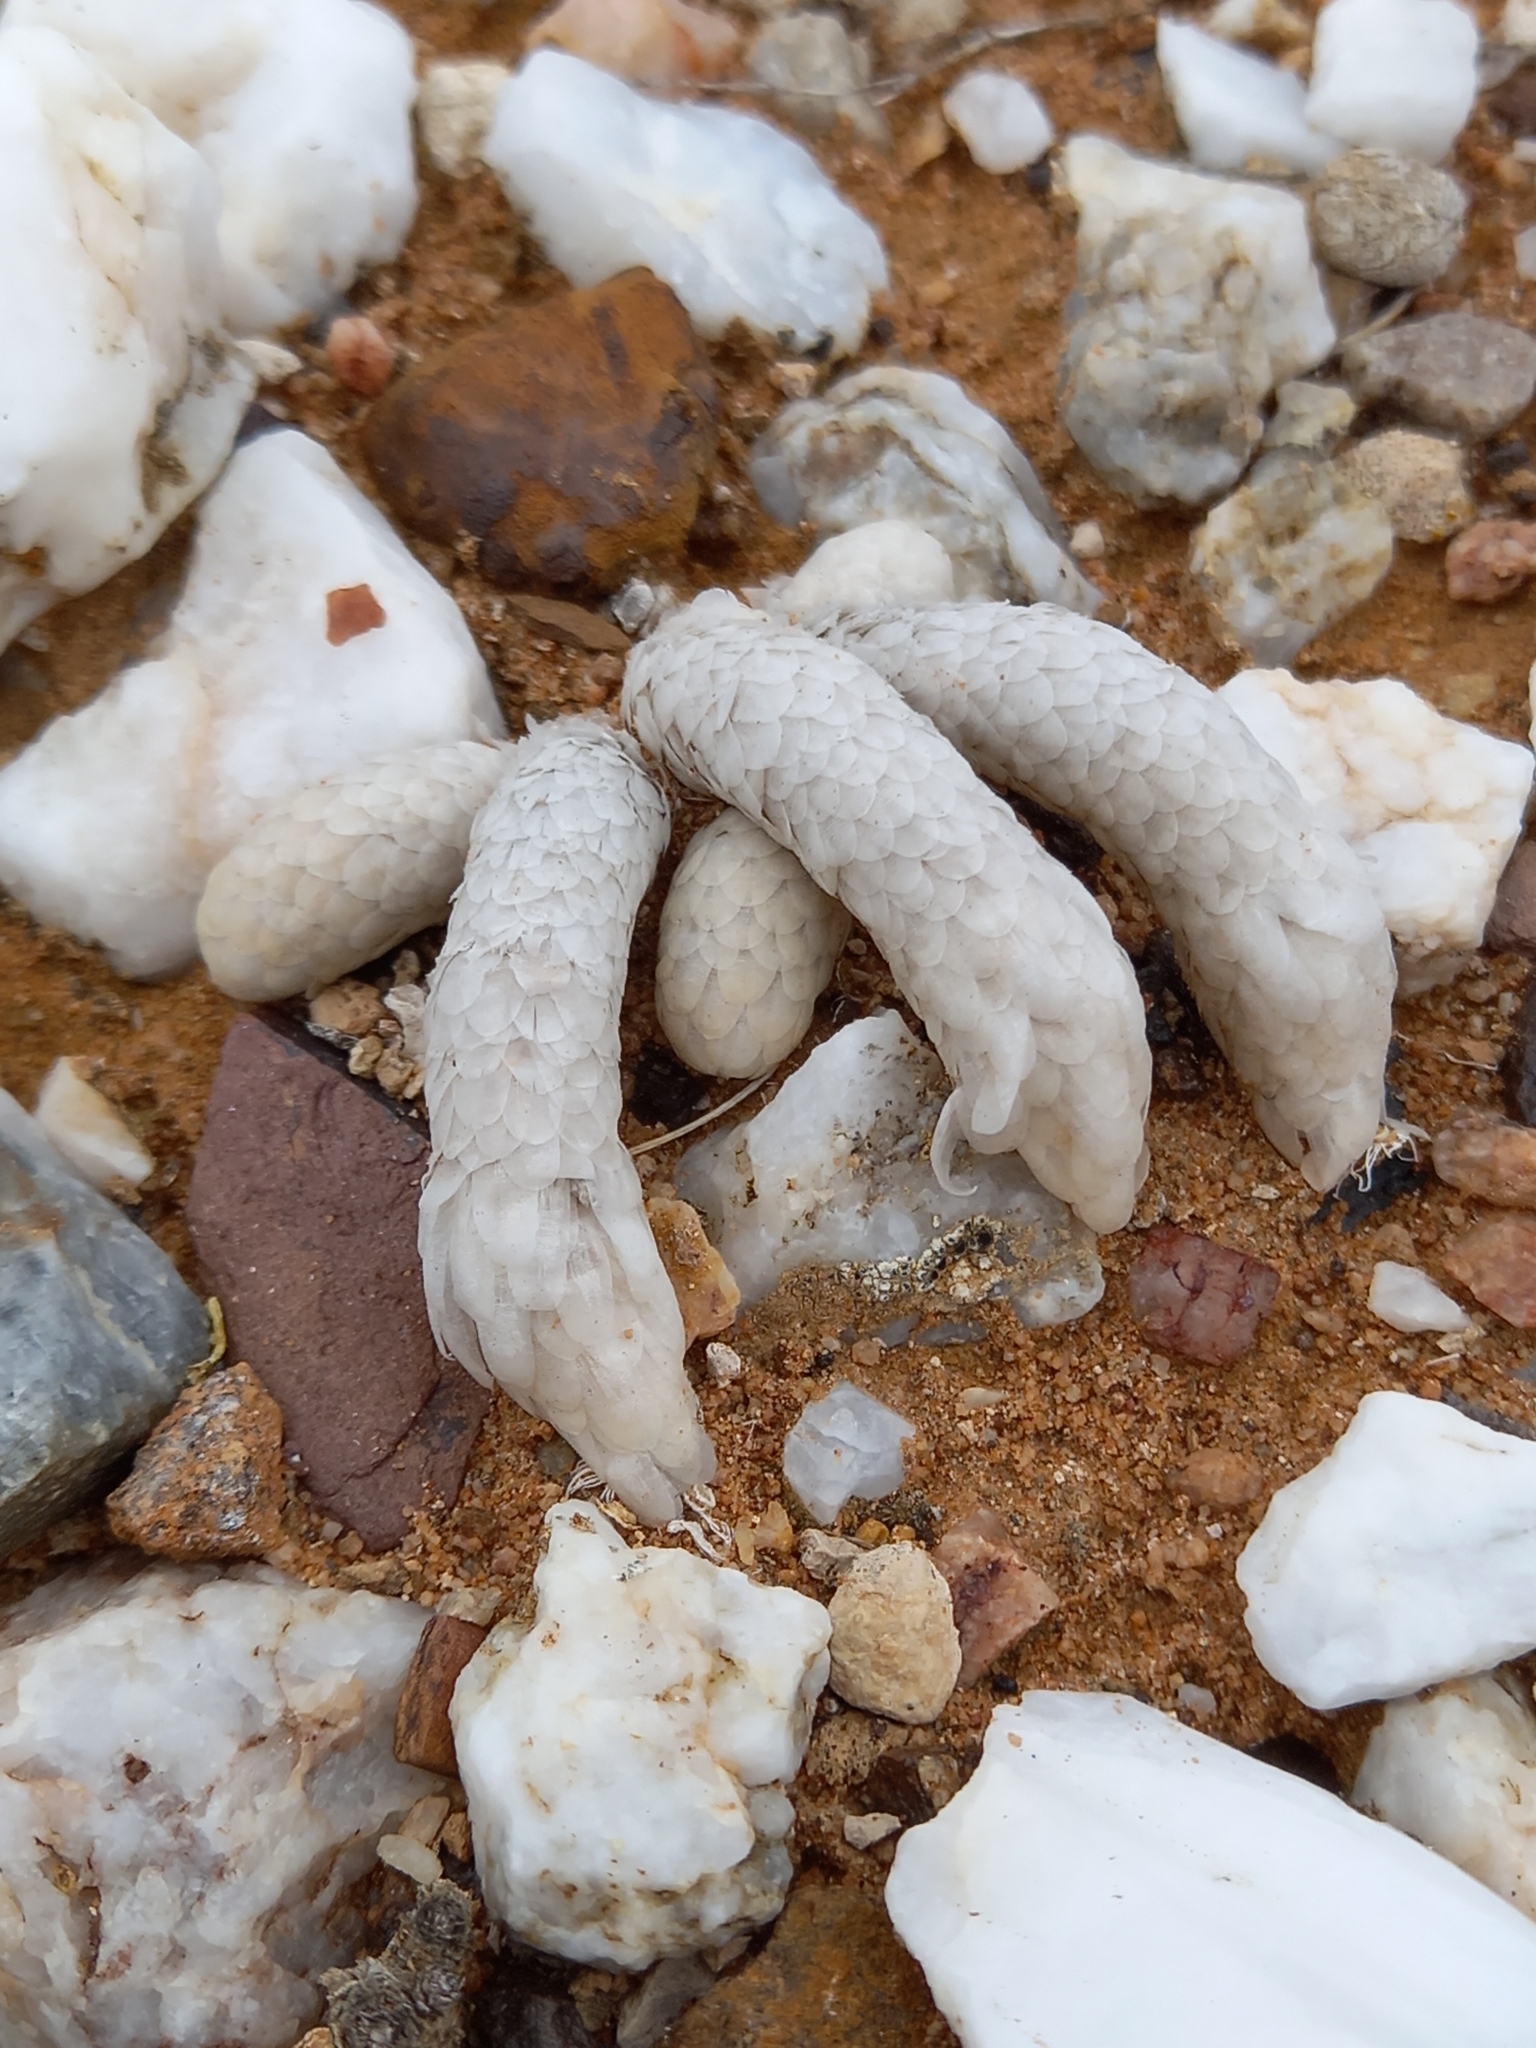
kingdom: Plantae
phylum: Tracheophyta
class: Magnoliopsida
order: Caryophyllales
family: Anacampserotaceae
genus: Avonia
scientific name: Avonia papyracea
